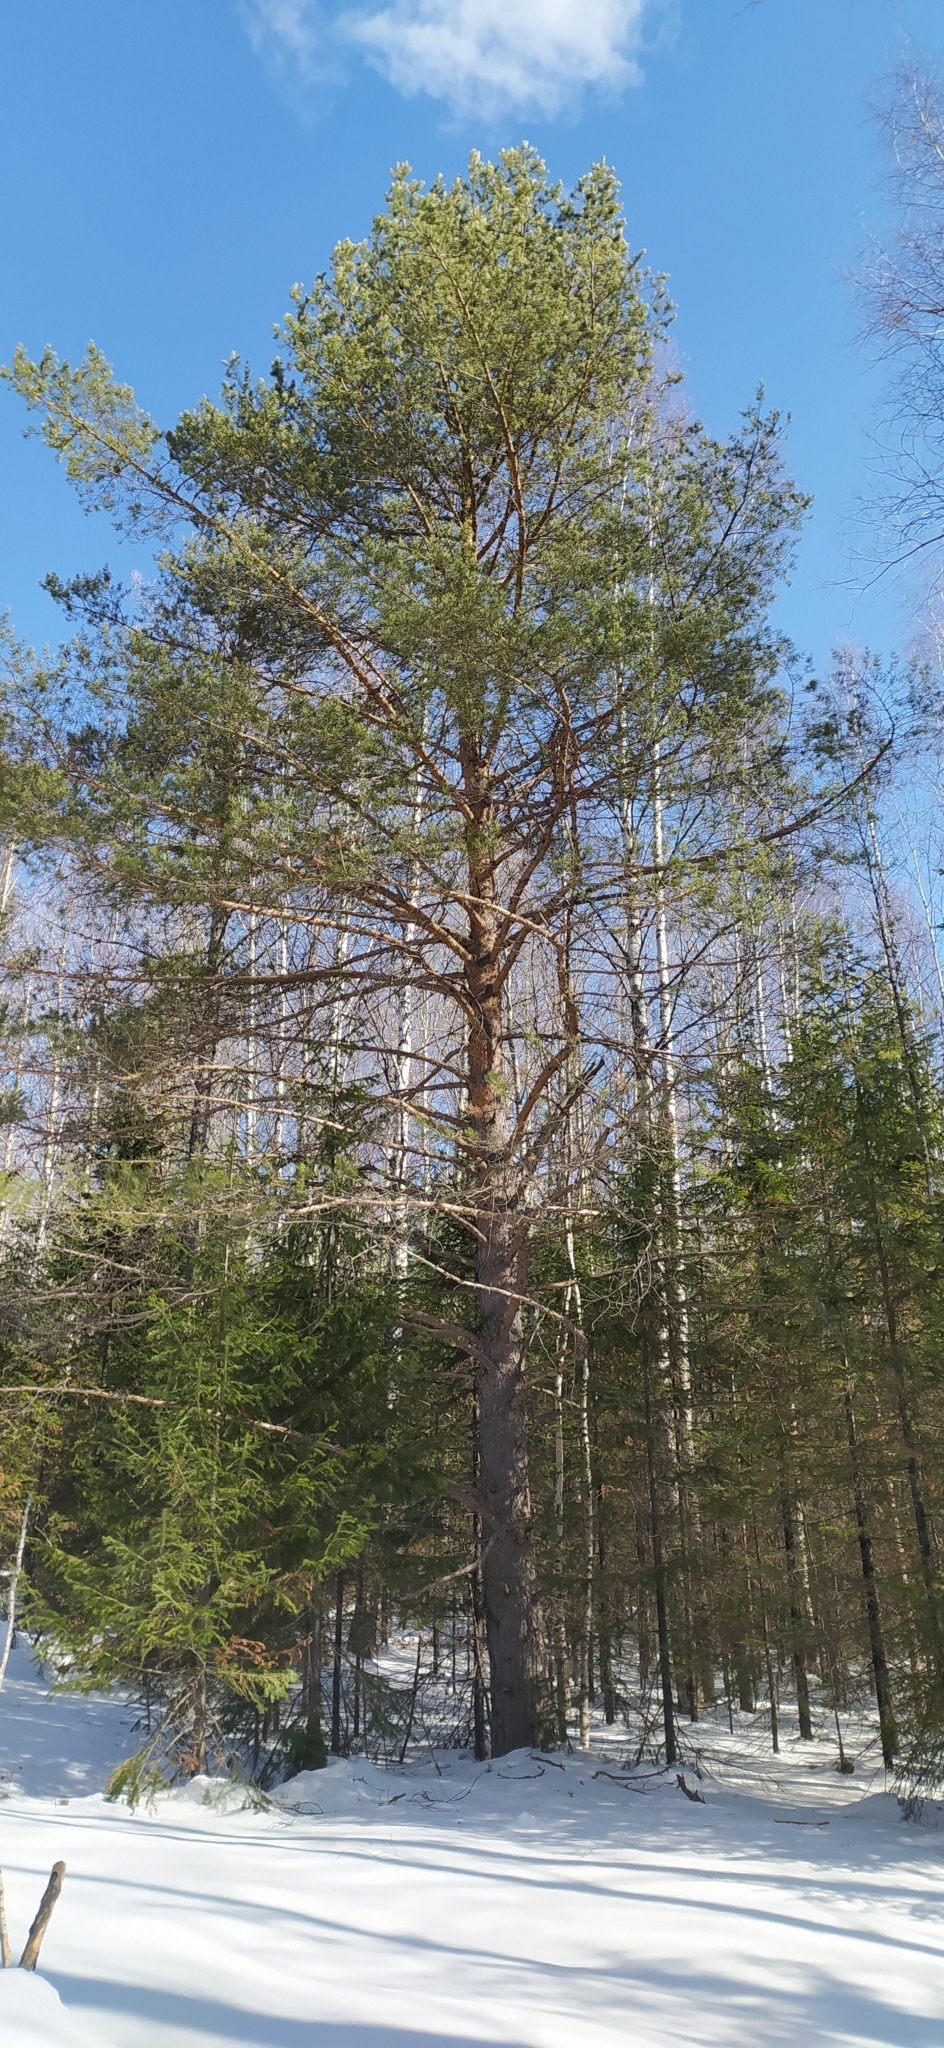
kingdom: Plantae
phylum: Tracheophyta
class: Pinopsida
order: Pinales
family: Pinaceae
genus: Pinus
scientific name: Pinus sylvestris
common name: Scots pine
